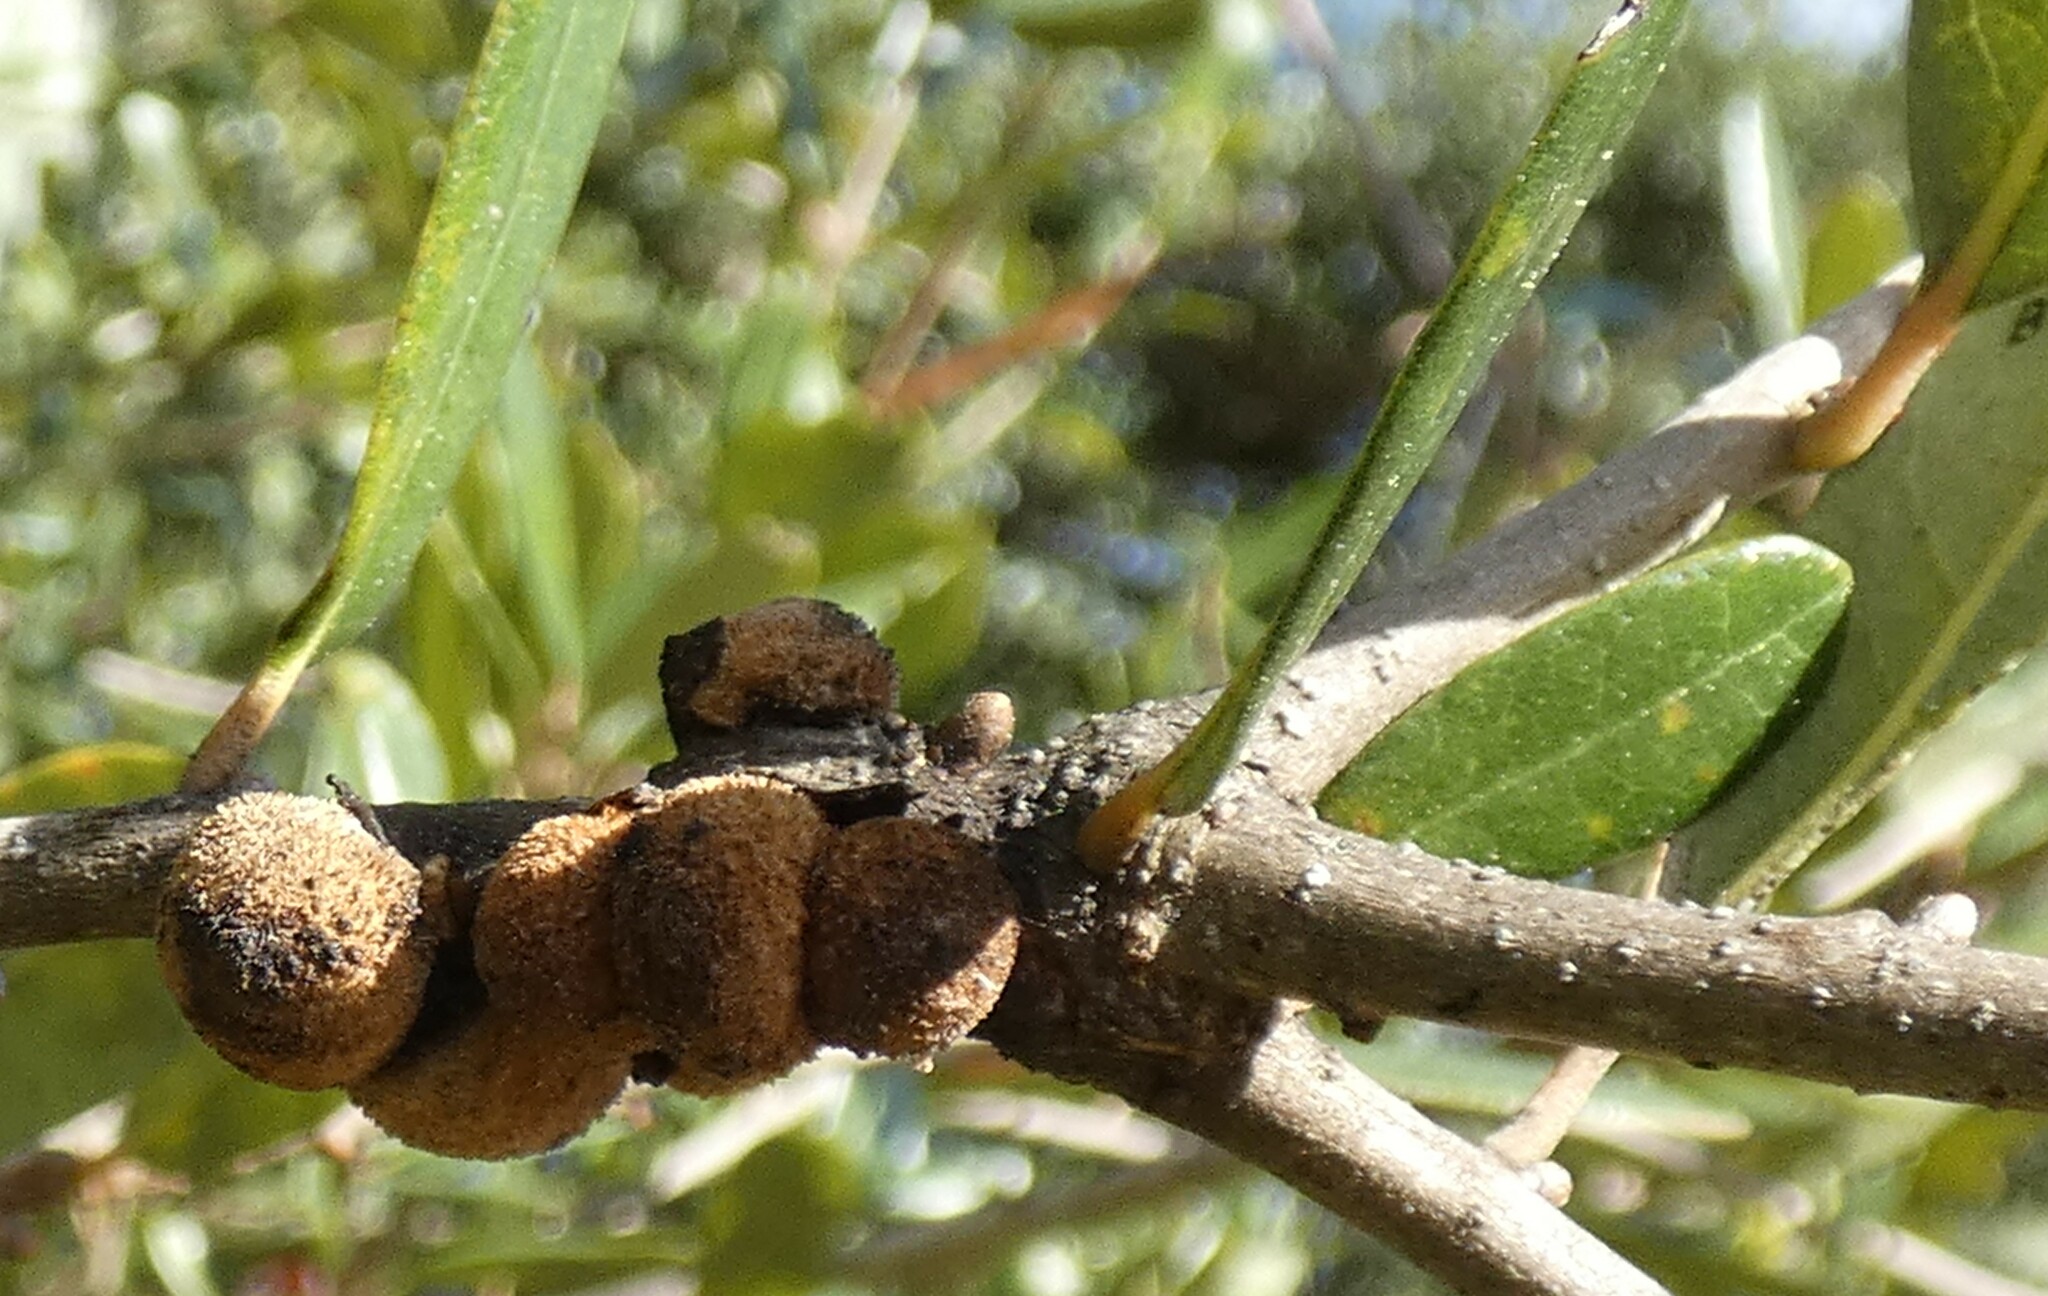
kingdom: Animalia
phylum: Arthropoda
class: Insecta
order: Hymenoptera
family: Cynipidae
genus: Disholcaspis
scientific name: Disholcaspis
